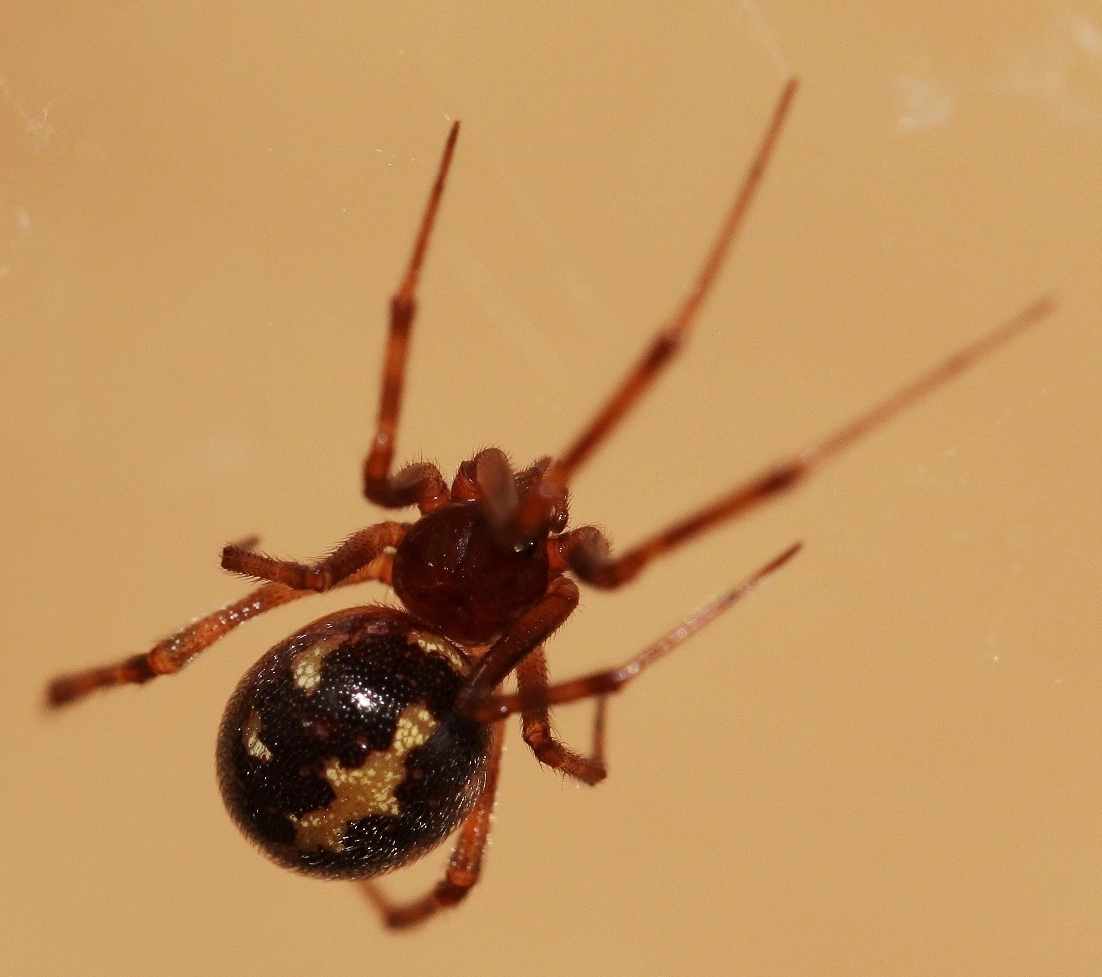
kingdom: Animalia
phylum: Arthropoda
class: Arachnida
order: Araneae
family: Theridiidae
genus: Steatoda
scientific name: Steatoda triangulosa
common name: Triangulate bud spider
